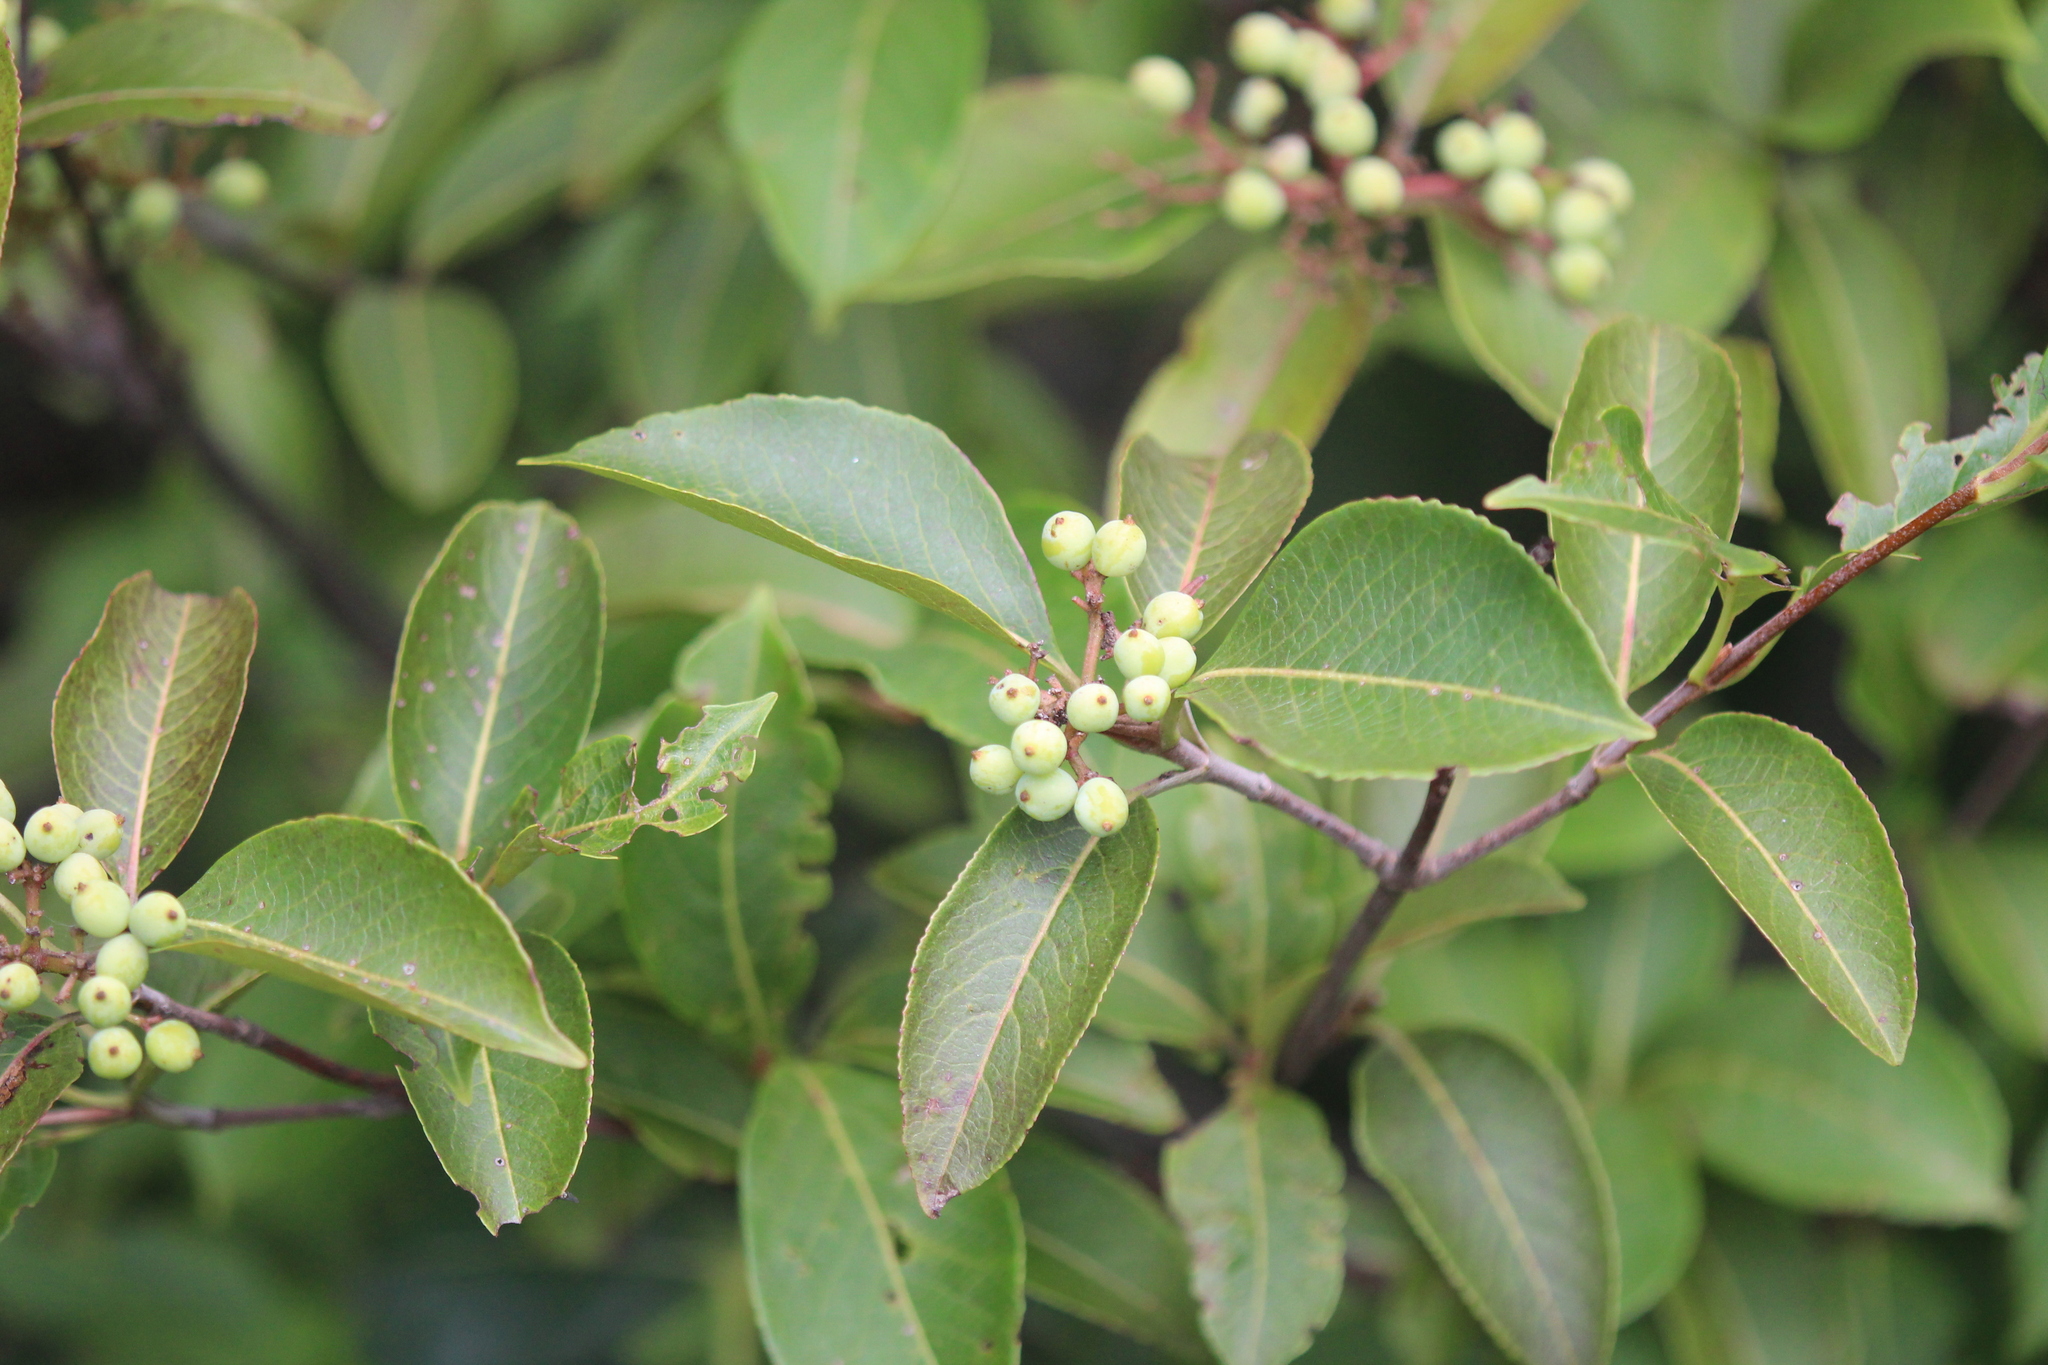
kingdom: Plantae
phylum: Tracheophyta
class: Magnoliopsida
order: Dipsacales
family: Viburnaceae
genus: Viburnum
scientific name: Viburnum cassinoides
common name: Swamp haw
